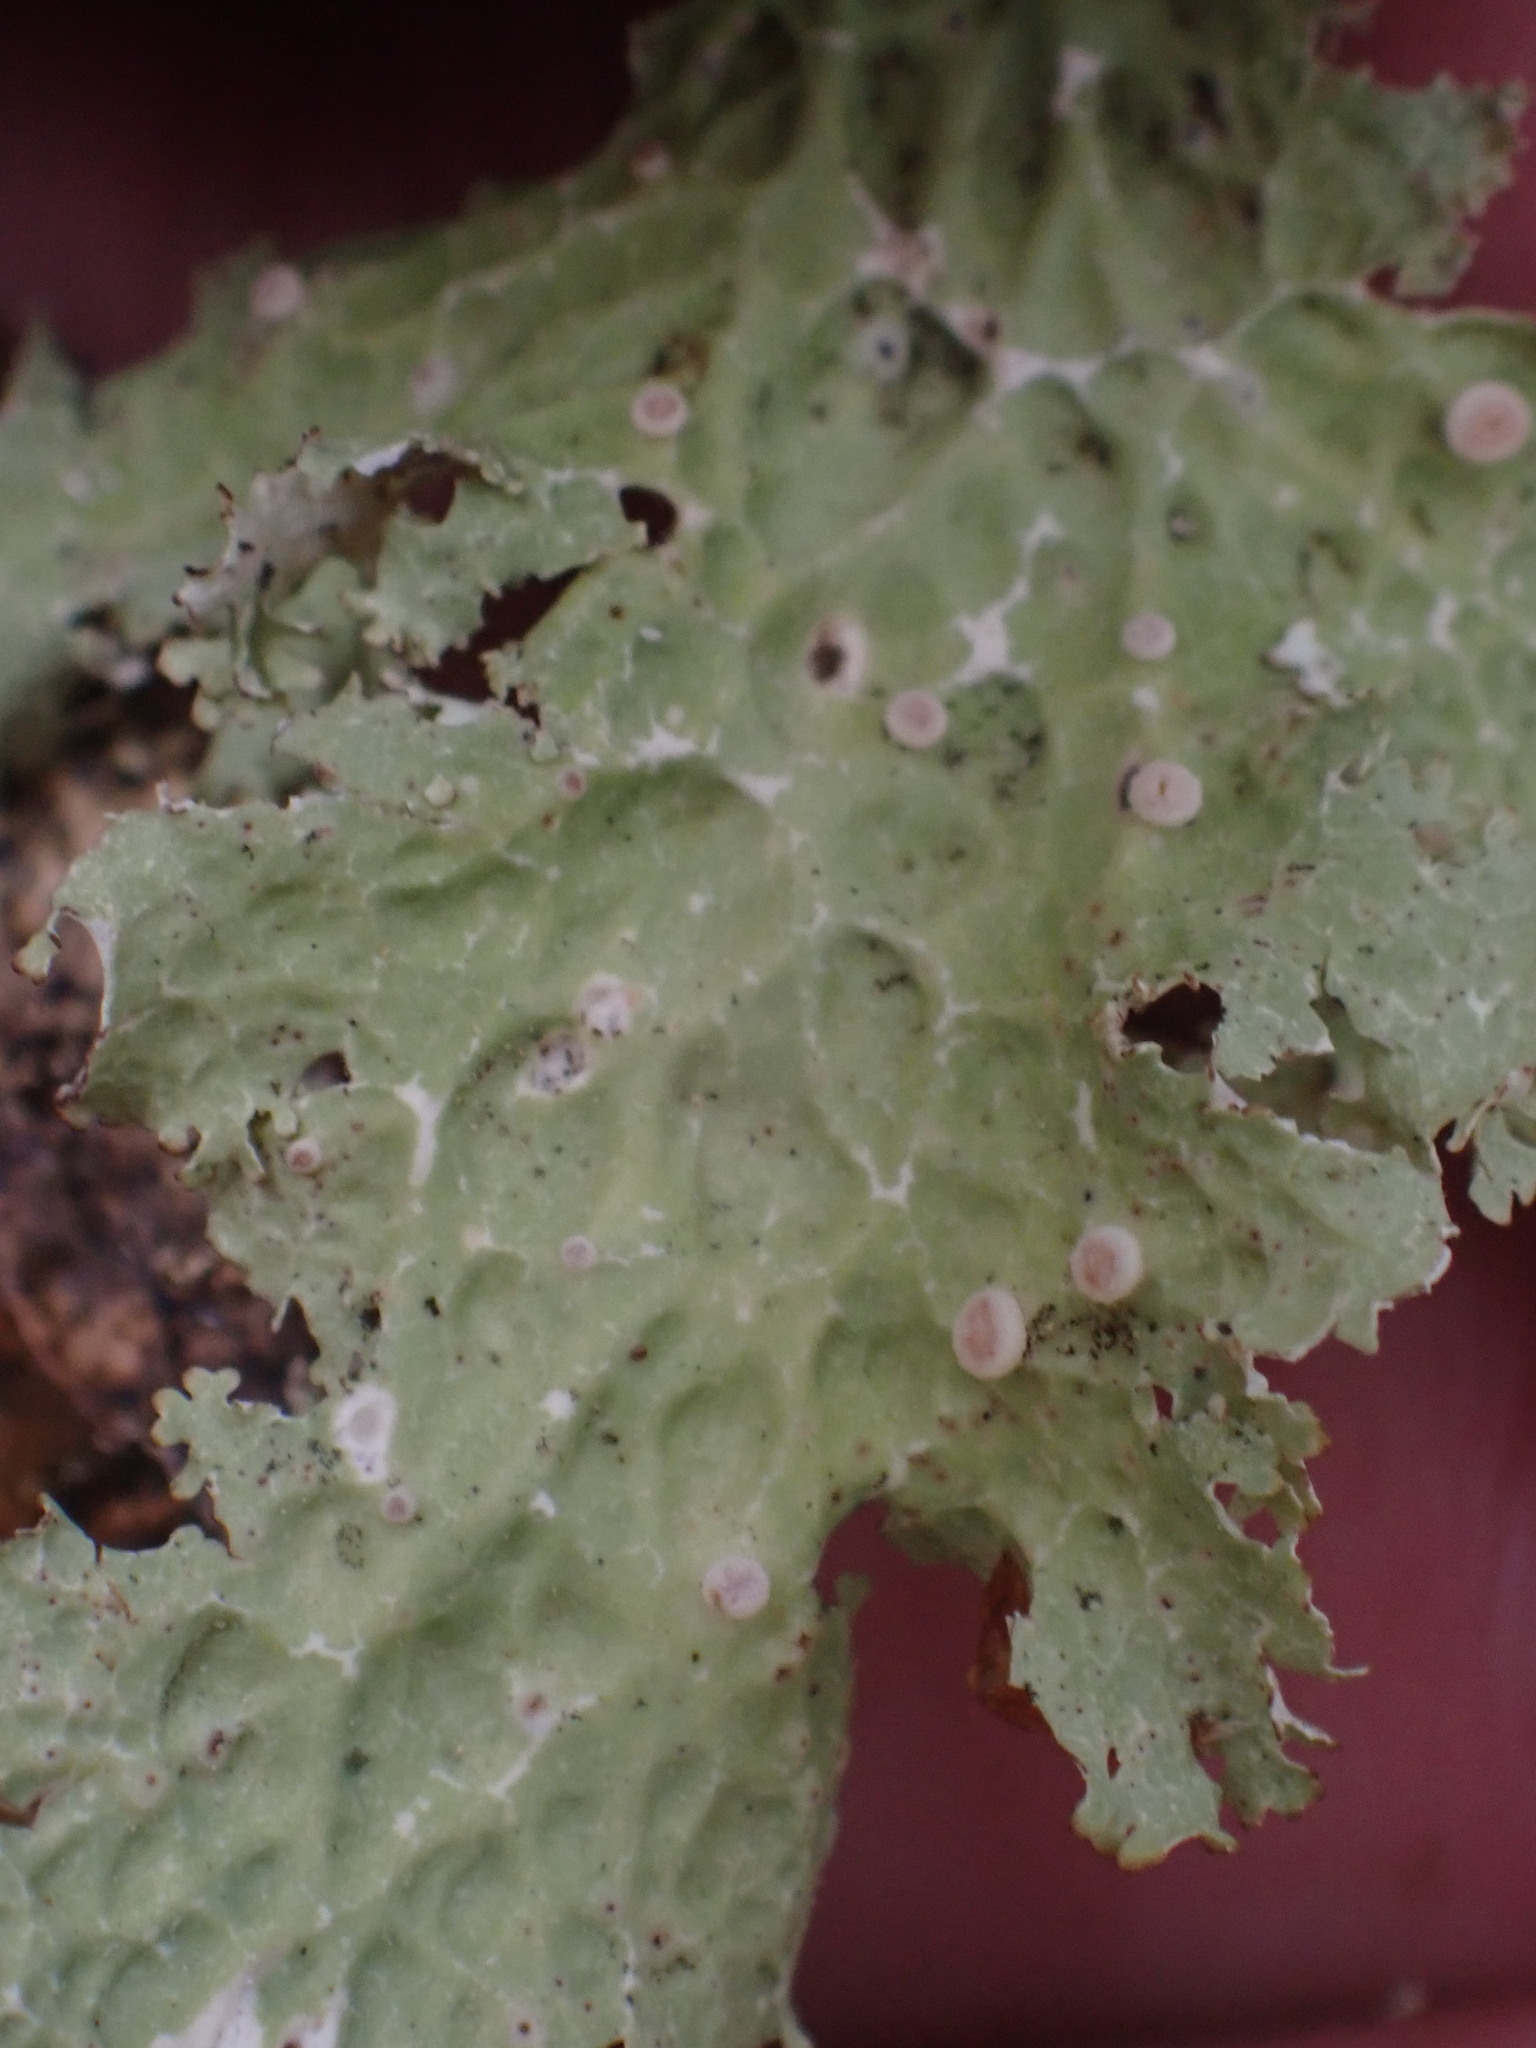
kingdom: Fungi
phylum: Ascomycota
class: Lecanoromycetes
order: Peltigerales
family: Lobariaceae
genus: Lobaria
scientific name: Lobaria oregana
